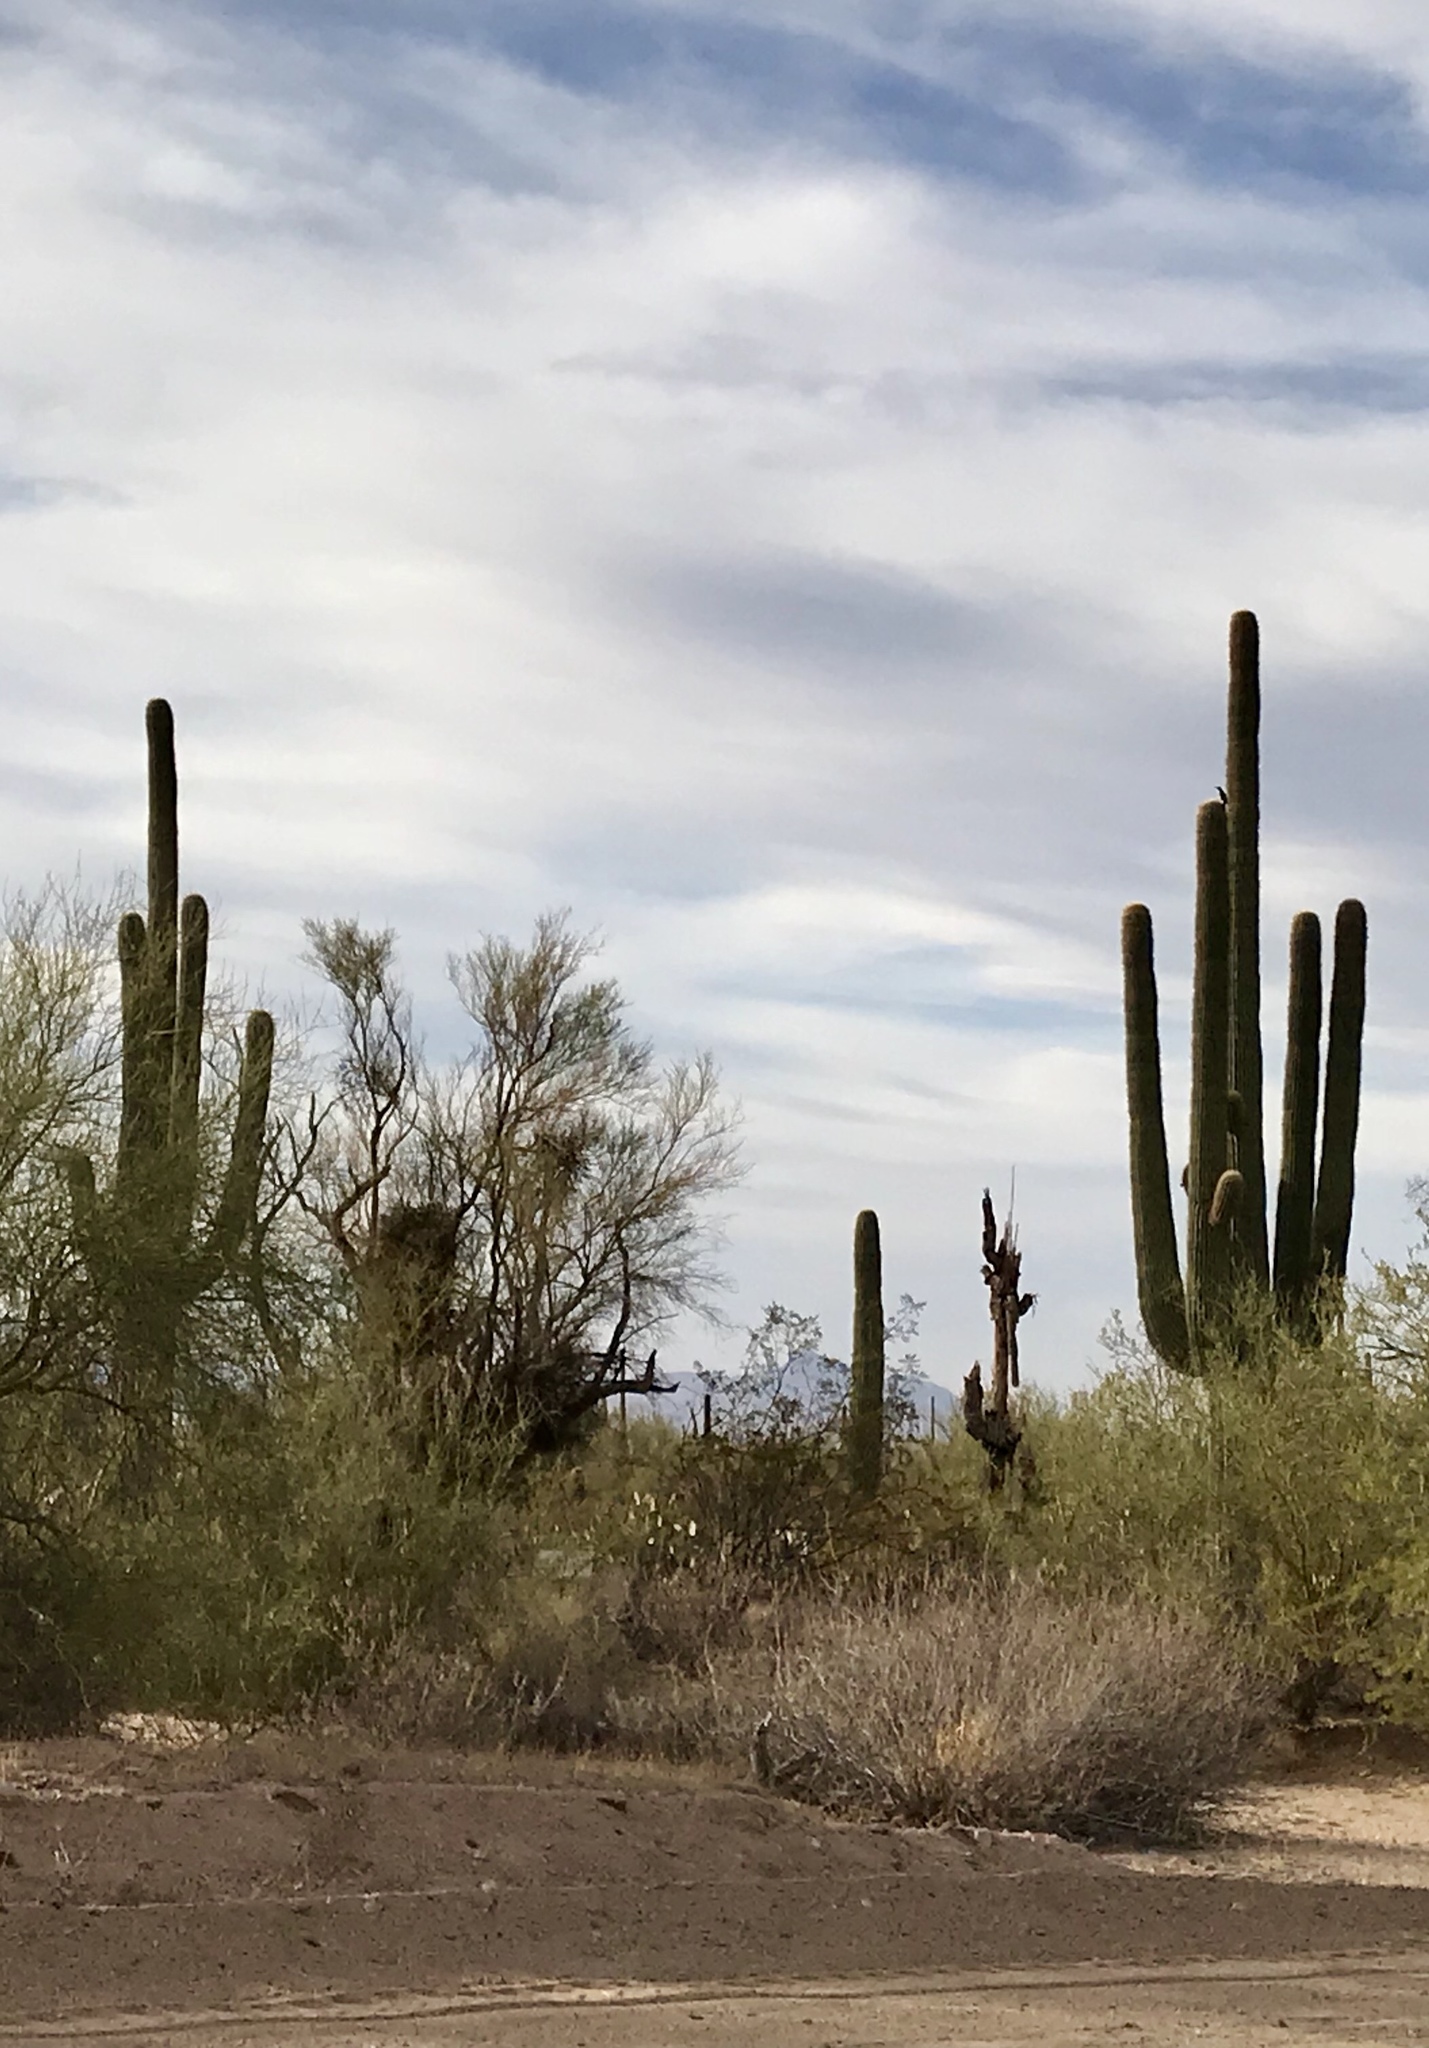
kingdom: Plantae
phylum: Tracheophyta
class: Magnoliopsida
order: Caryophyllales
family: Cactaceae
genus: Carnegiea
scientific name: Carnegiea gigantea
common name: Saguaro
